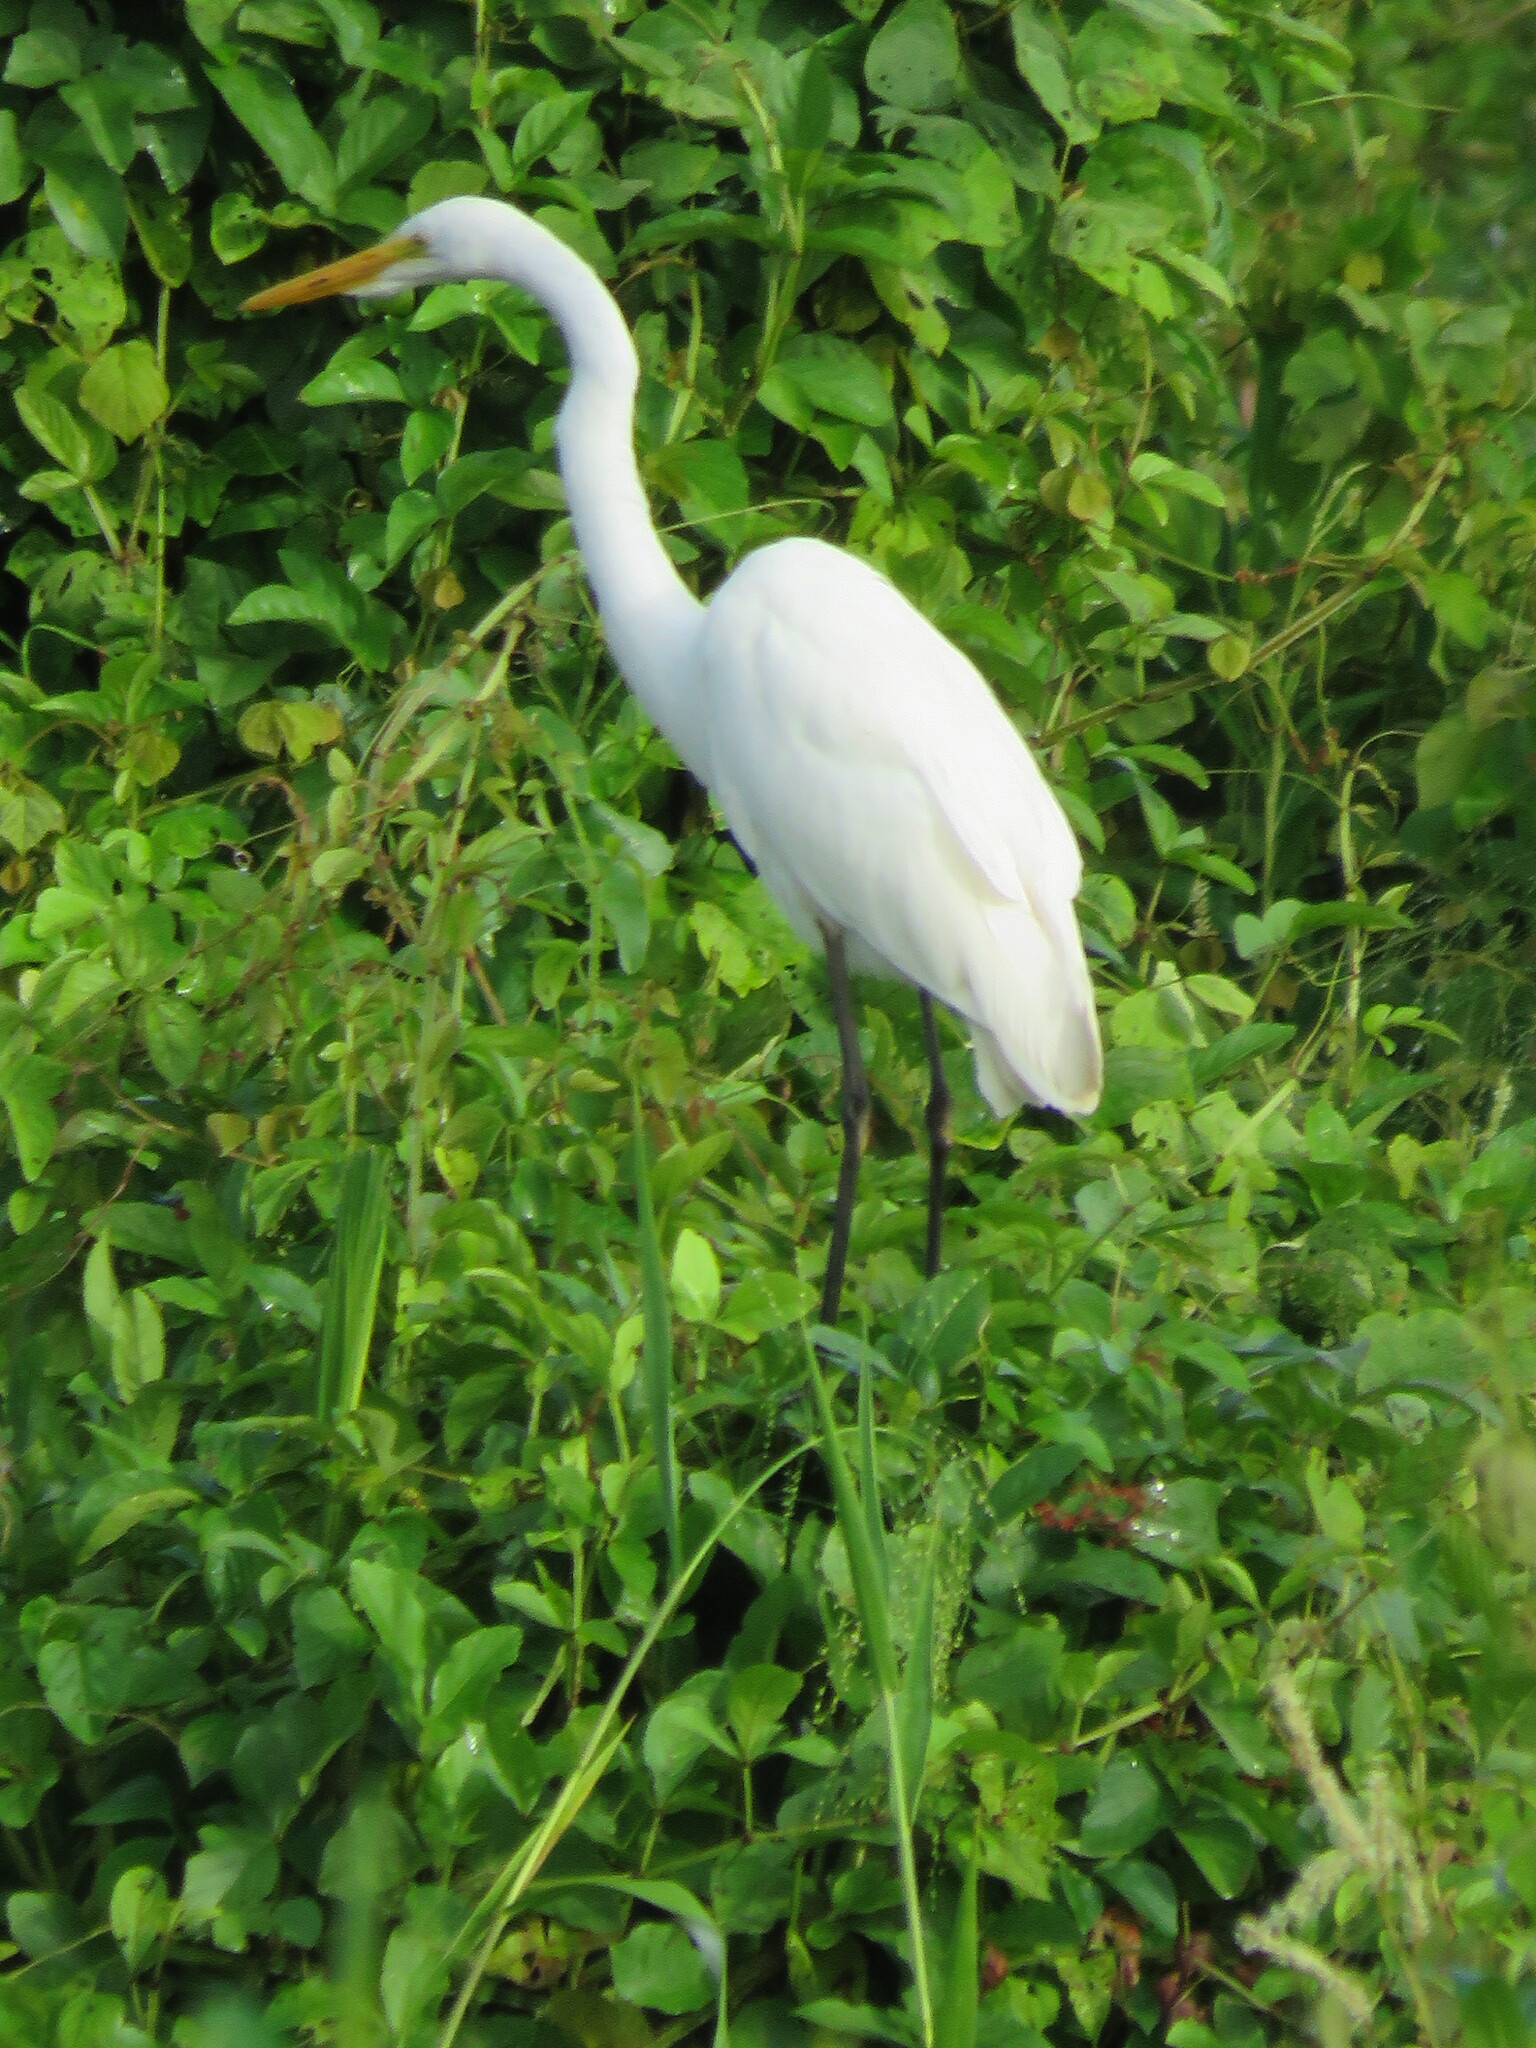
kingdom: Animalia
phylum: Chordata
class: Aves
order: Pelecaniformes
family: Ardeidae
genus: Ardea
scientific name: Ardea alba
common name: Great egret
